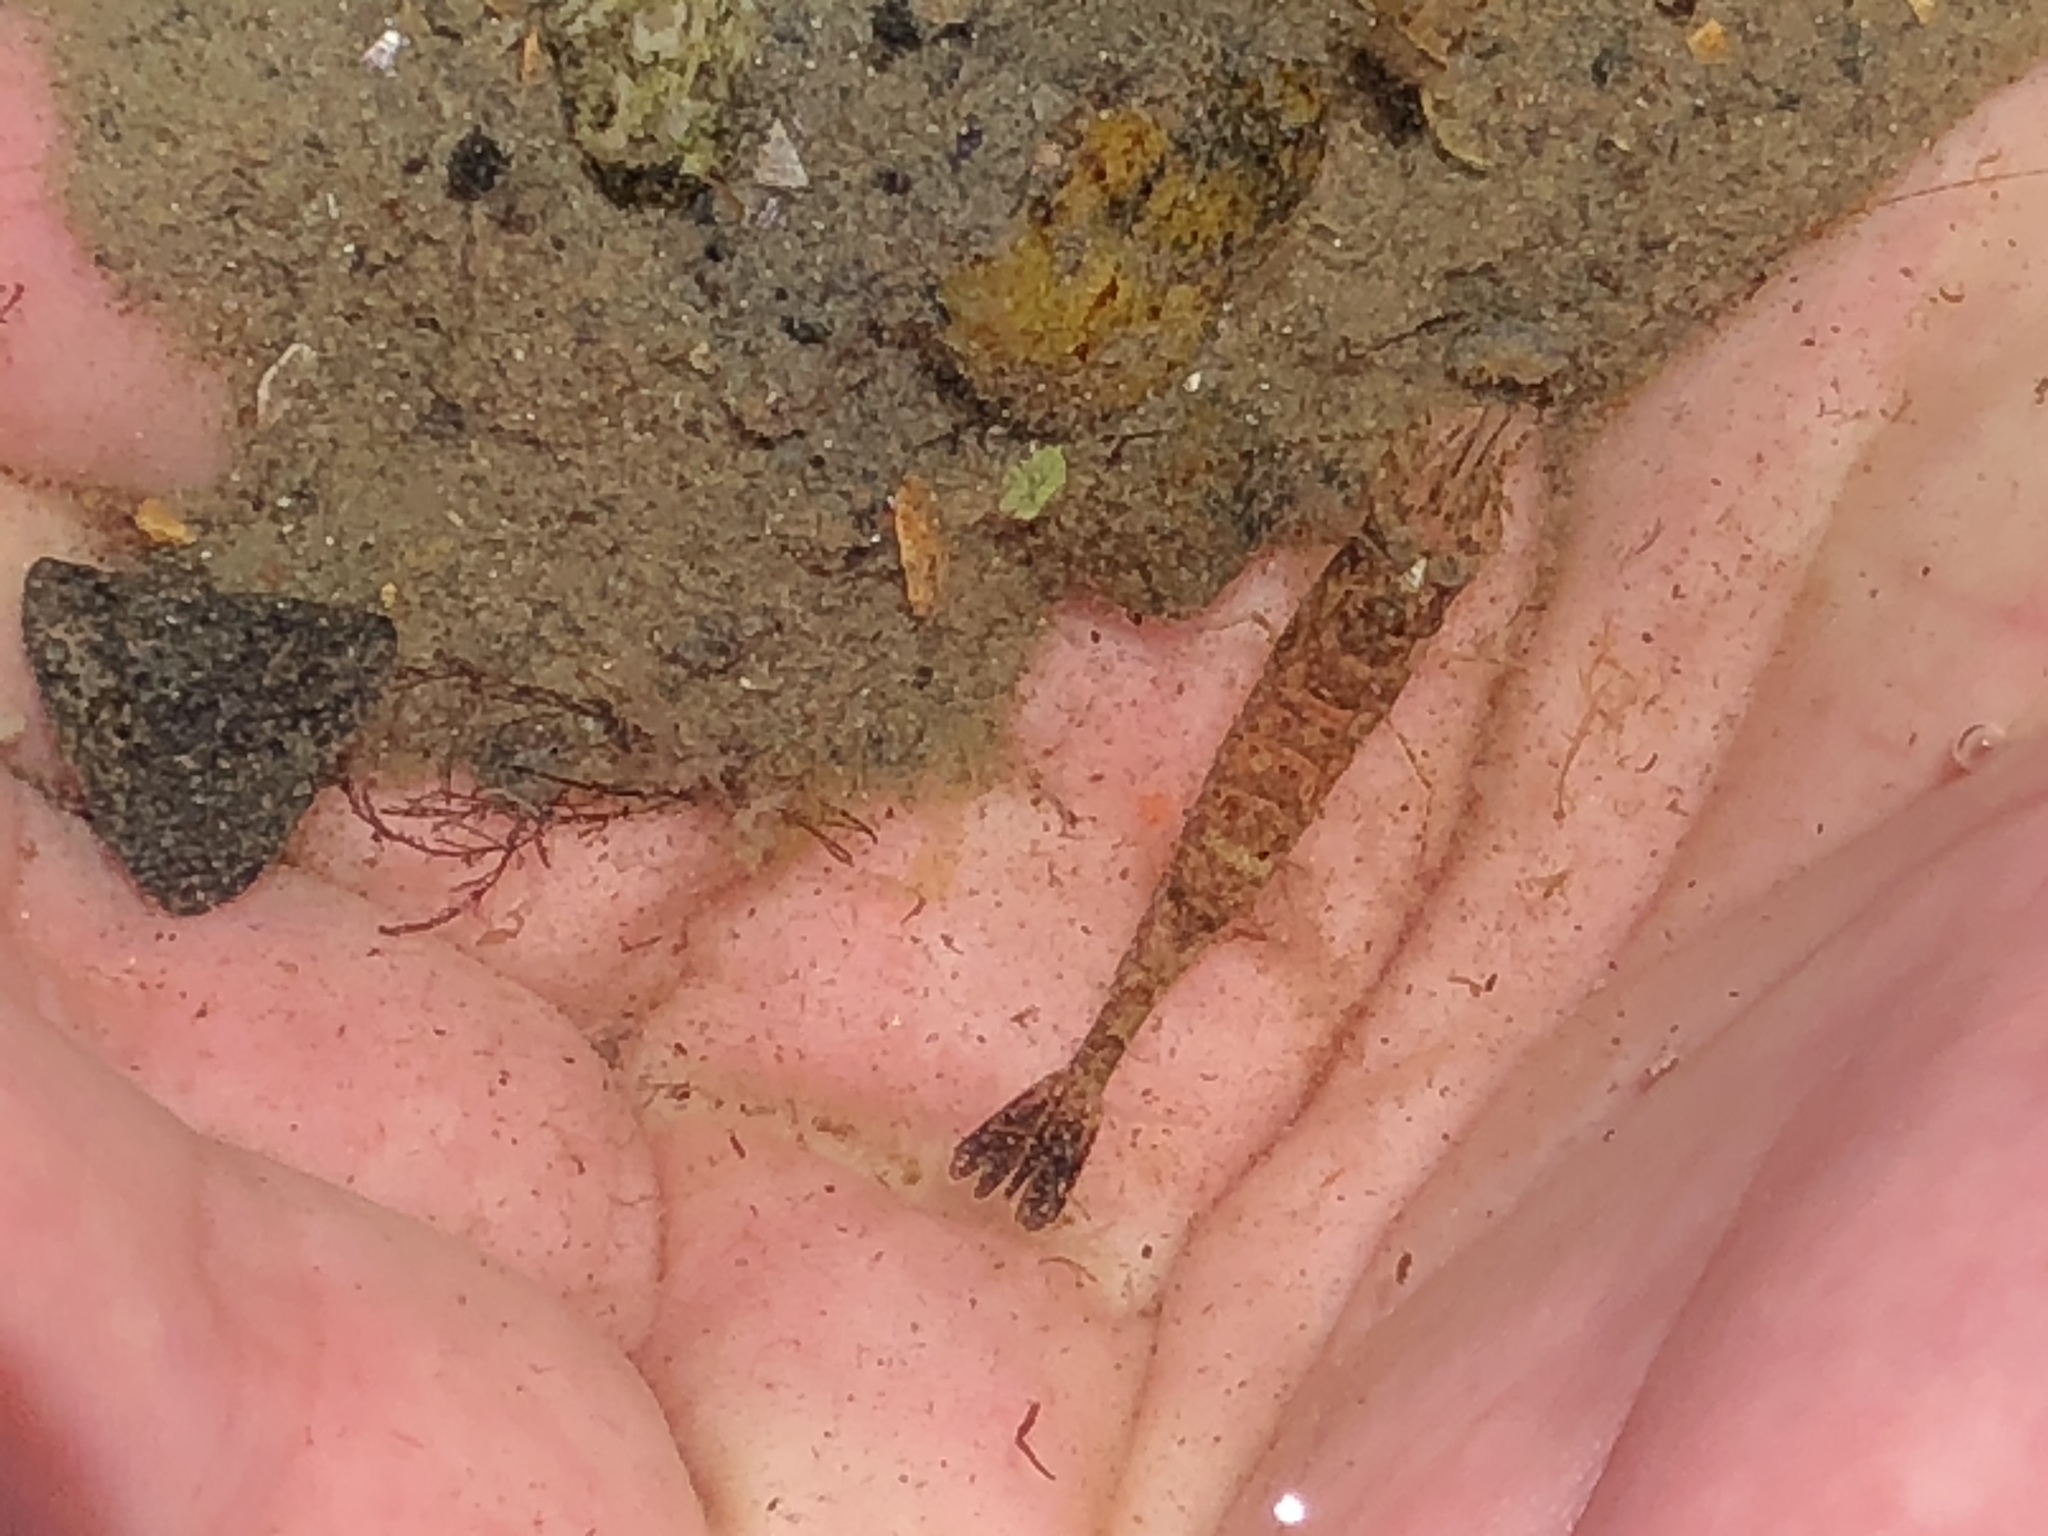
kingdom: Animalia
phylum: Arthropoda
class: Malacostraca
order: Decapoda
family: Crangonidae
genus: Crangon
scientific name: Crangon septemspinosa
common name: Bail shrimp
